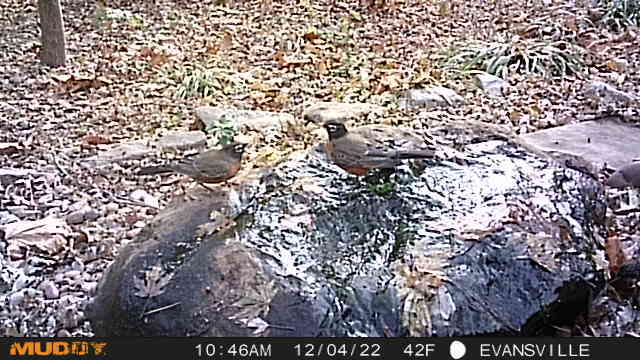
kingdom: Animalia
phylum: Chordata
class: Aves
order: Passeriformes
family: Turdidae
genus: Turdus
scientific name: Turdus migratorius
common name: American robin
